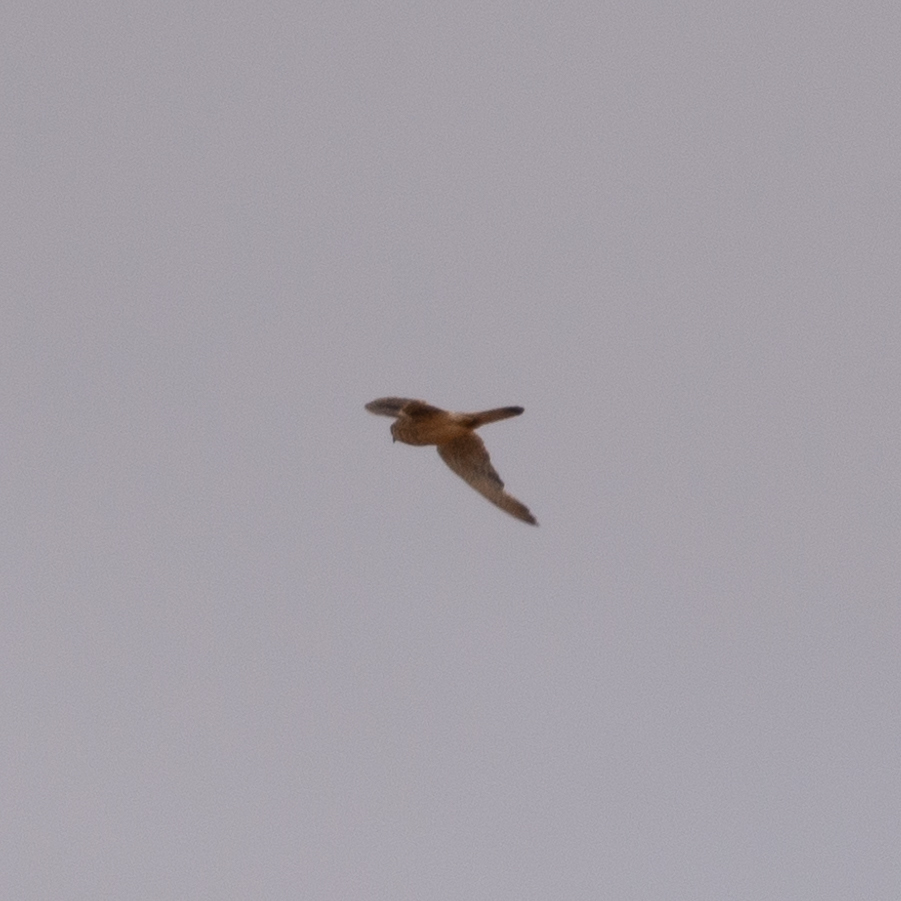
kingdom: Animalia
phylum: Chordata
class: Aves
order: Falconiformes
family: Falconidae
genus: Falco
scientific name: Falco tinnunculus
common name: Common kestrel
